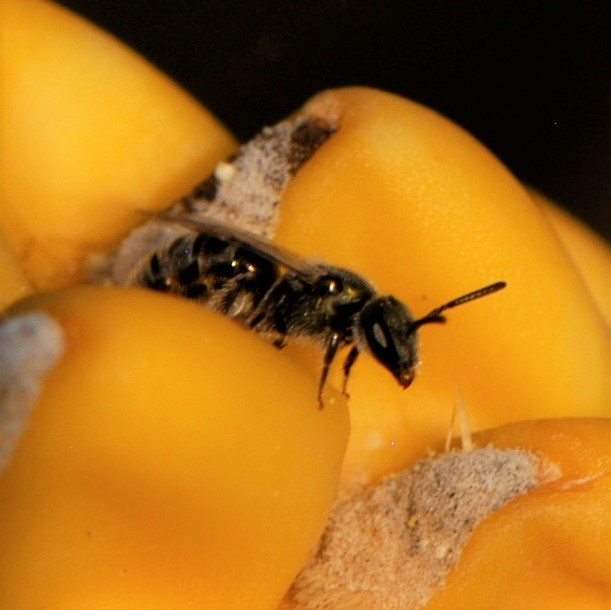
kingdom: Animalia
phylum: Arthropoda
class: Insecta
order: Hymenoptera
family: Halictidae
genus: Lasioglossum
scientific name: Lasioglossum
